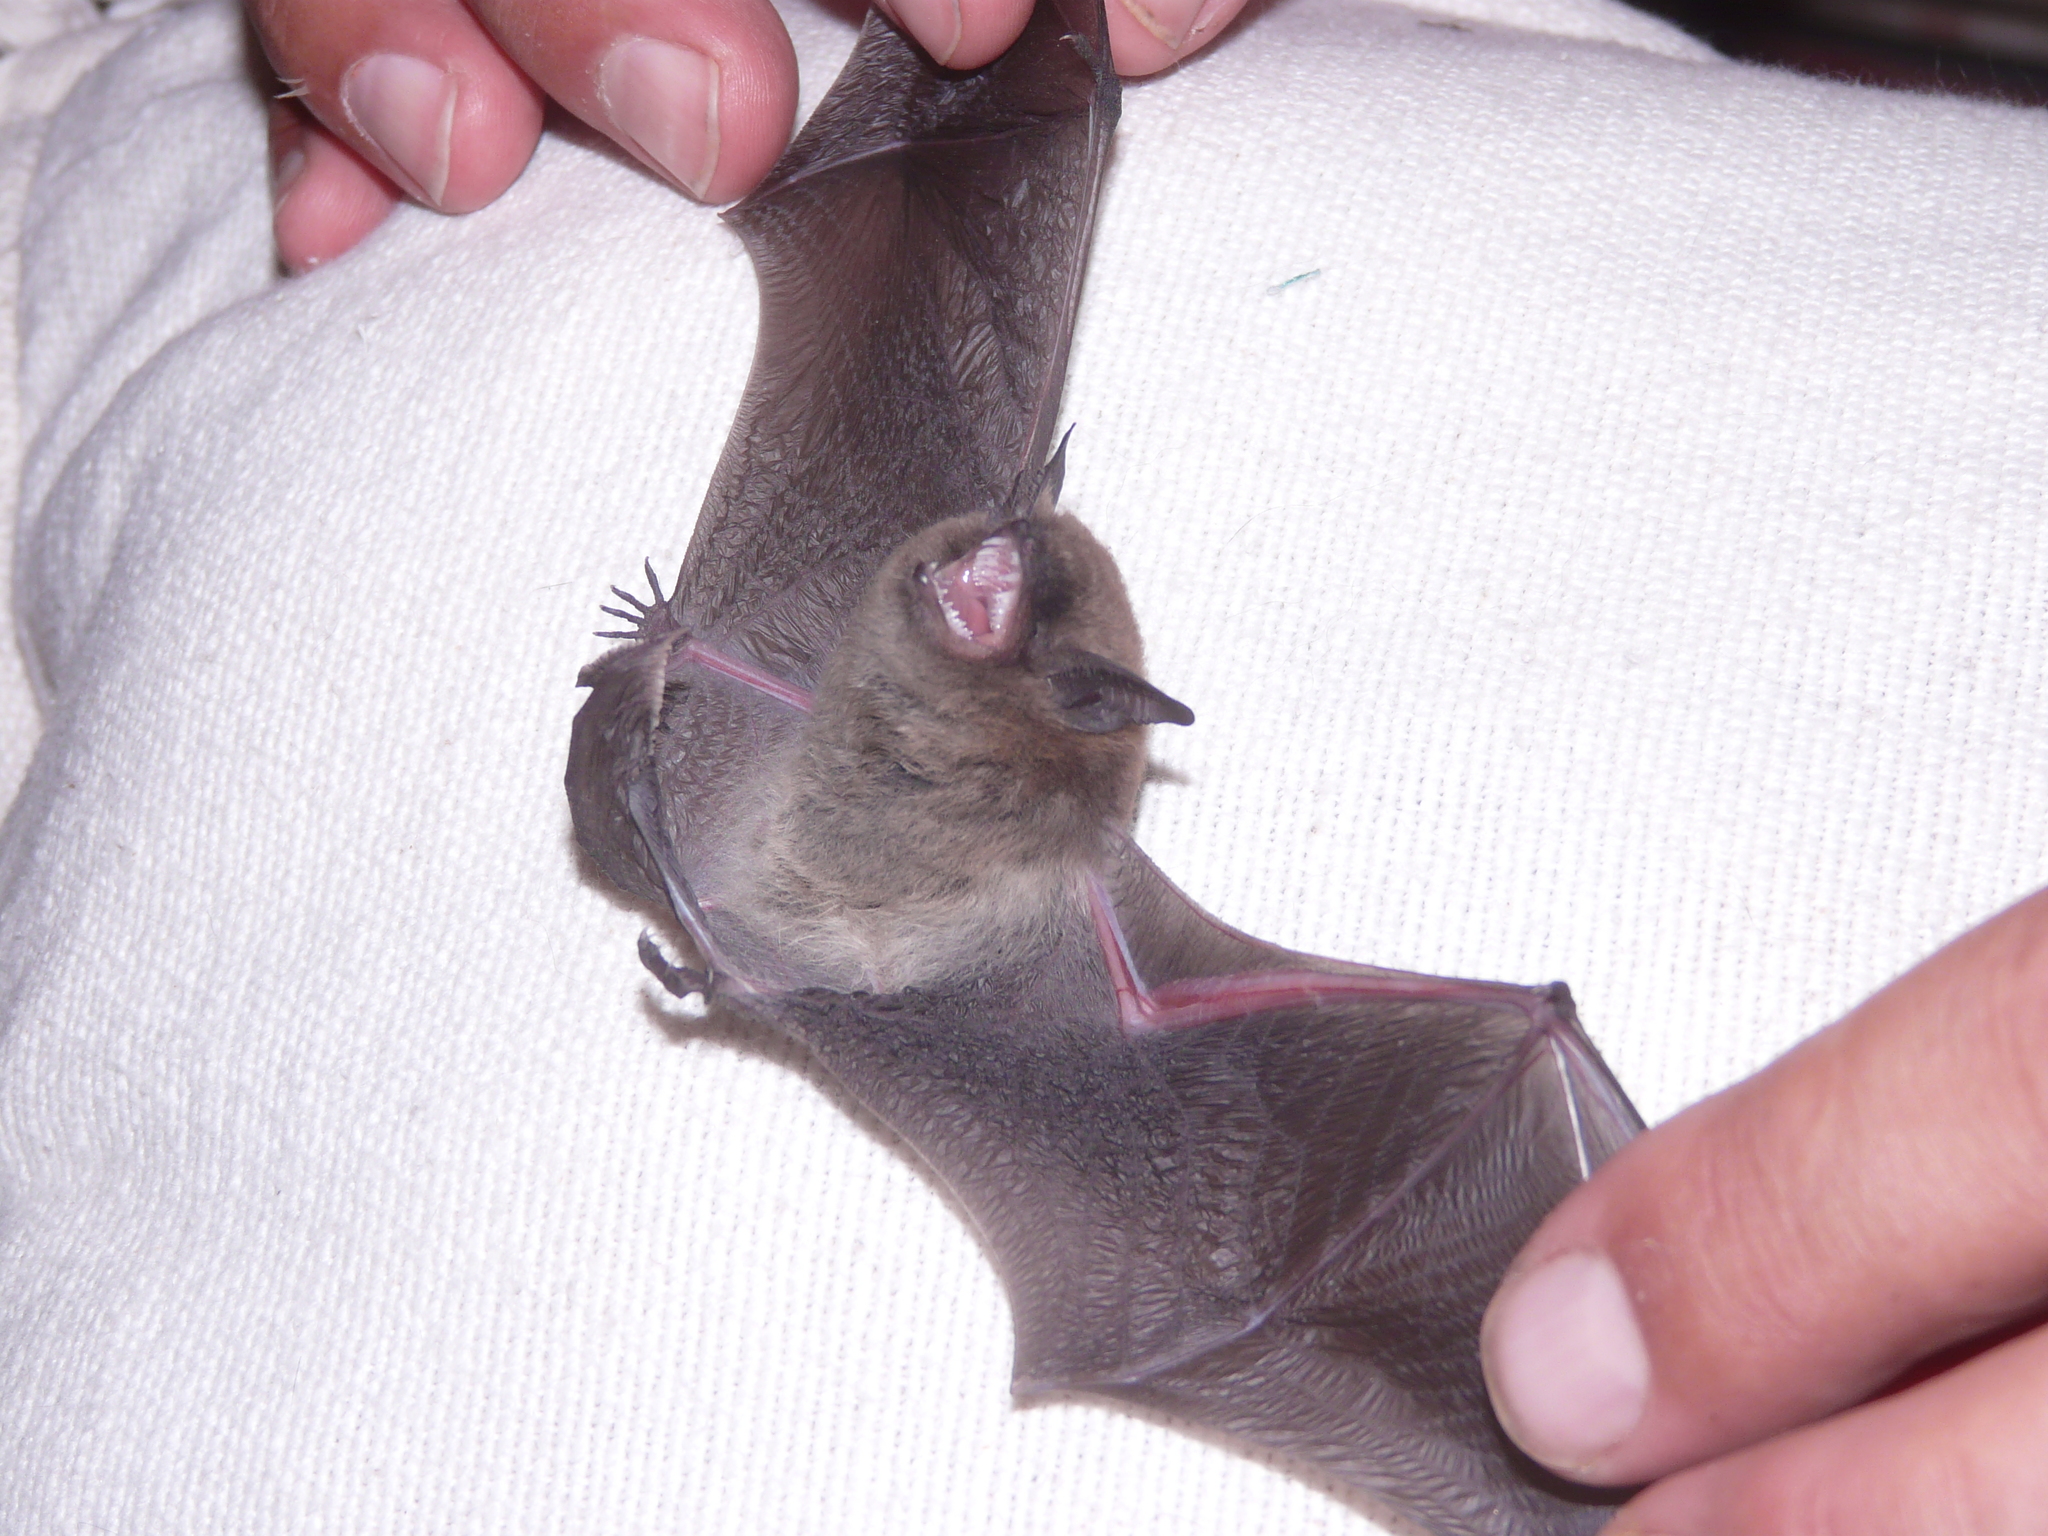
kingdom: Animalia
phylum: Chordata
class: Mammalia
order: Chiroptera
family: Vespertilionidae
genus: Myotis
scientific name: Myotis dinellii
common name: Dinelli's myotis
